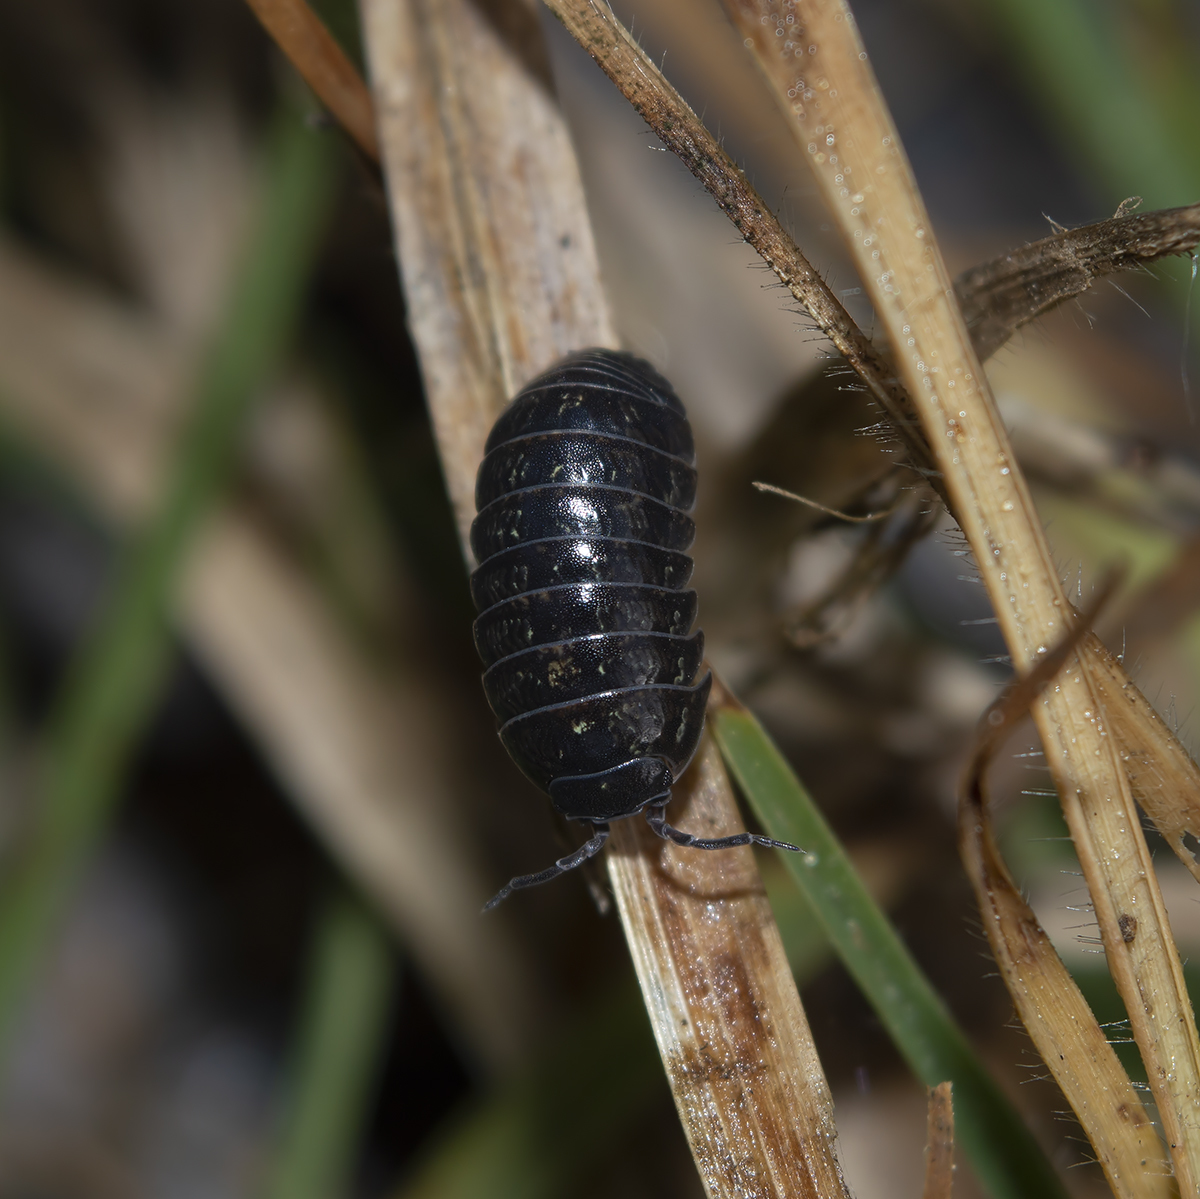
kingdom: Animalia
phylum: Arthropoda
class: Malacostraca
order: Isopoda
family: Armadillidiidae
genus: Armadillidium
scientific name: Armadillidium vulgare
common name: Common pill woodlouse
